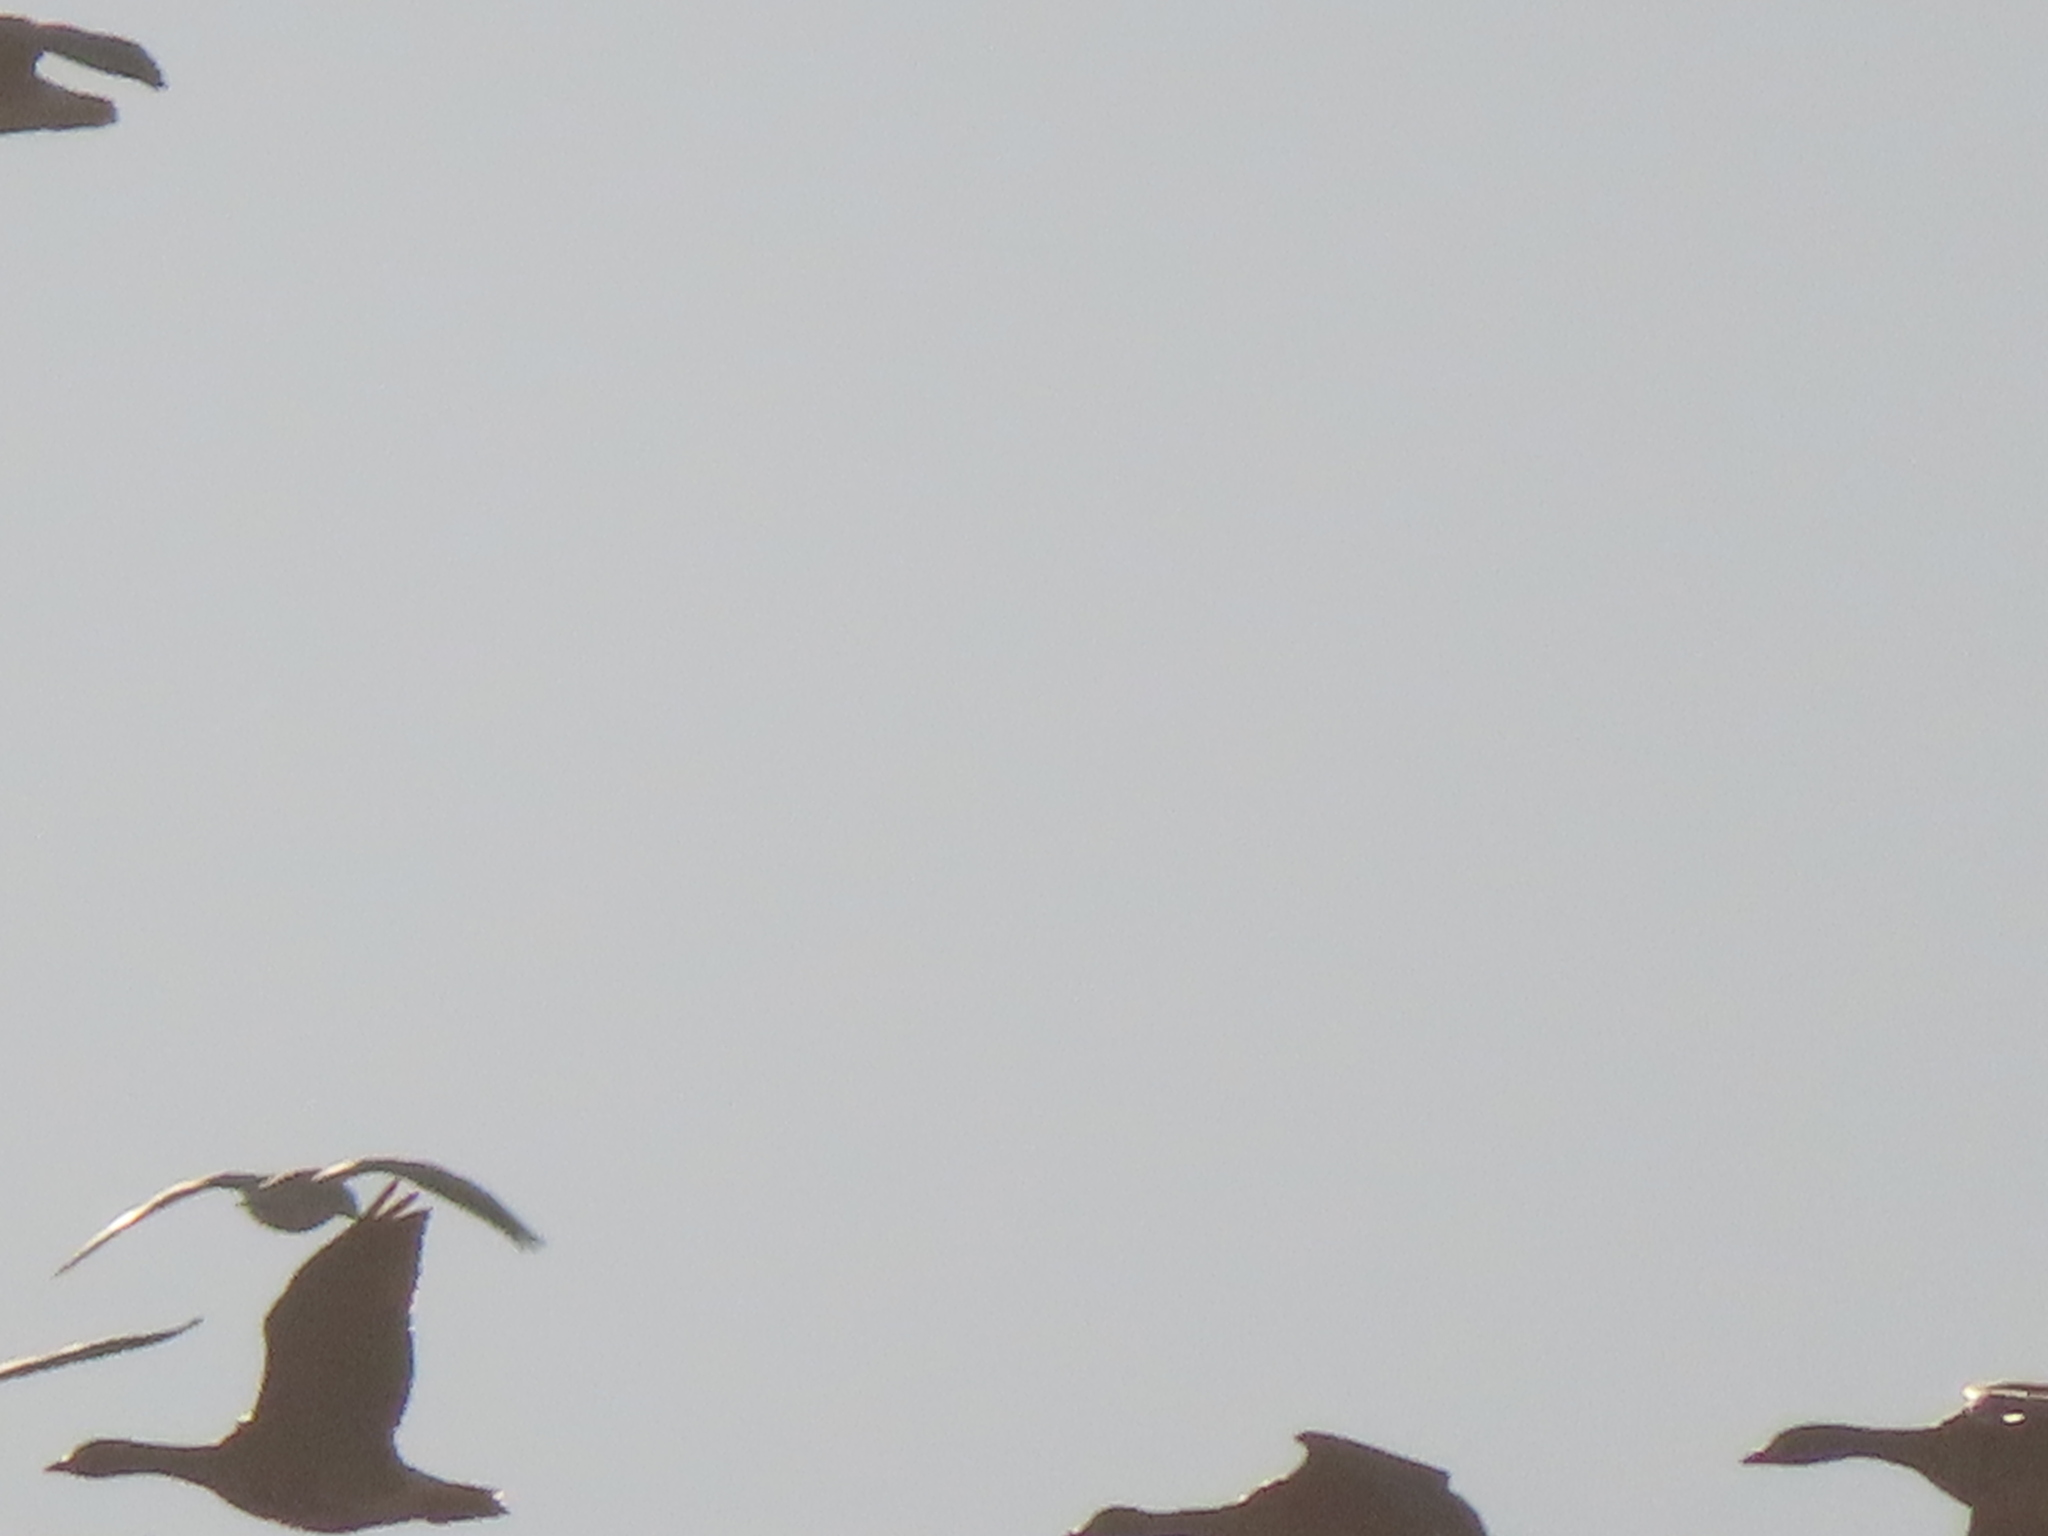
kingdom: Animalia
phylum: Chordata
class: Aves
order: Anseriformes
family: Anatidae
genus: Anser
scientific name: Anser caerulescens
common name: Snow goose
